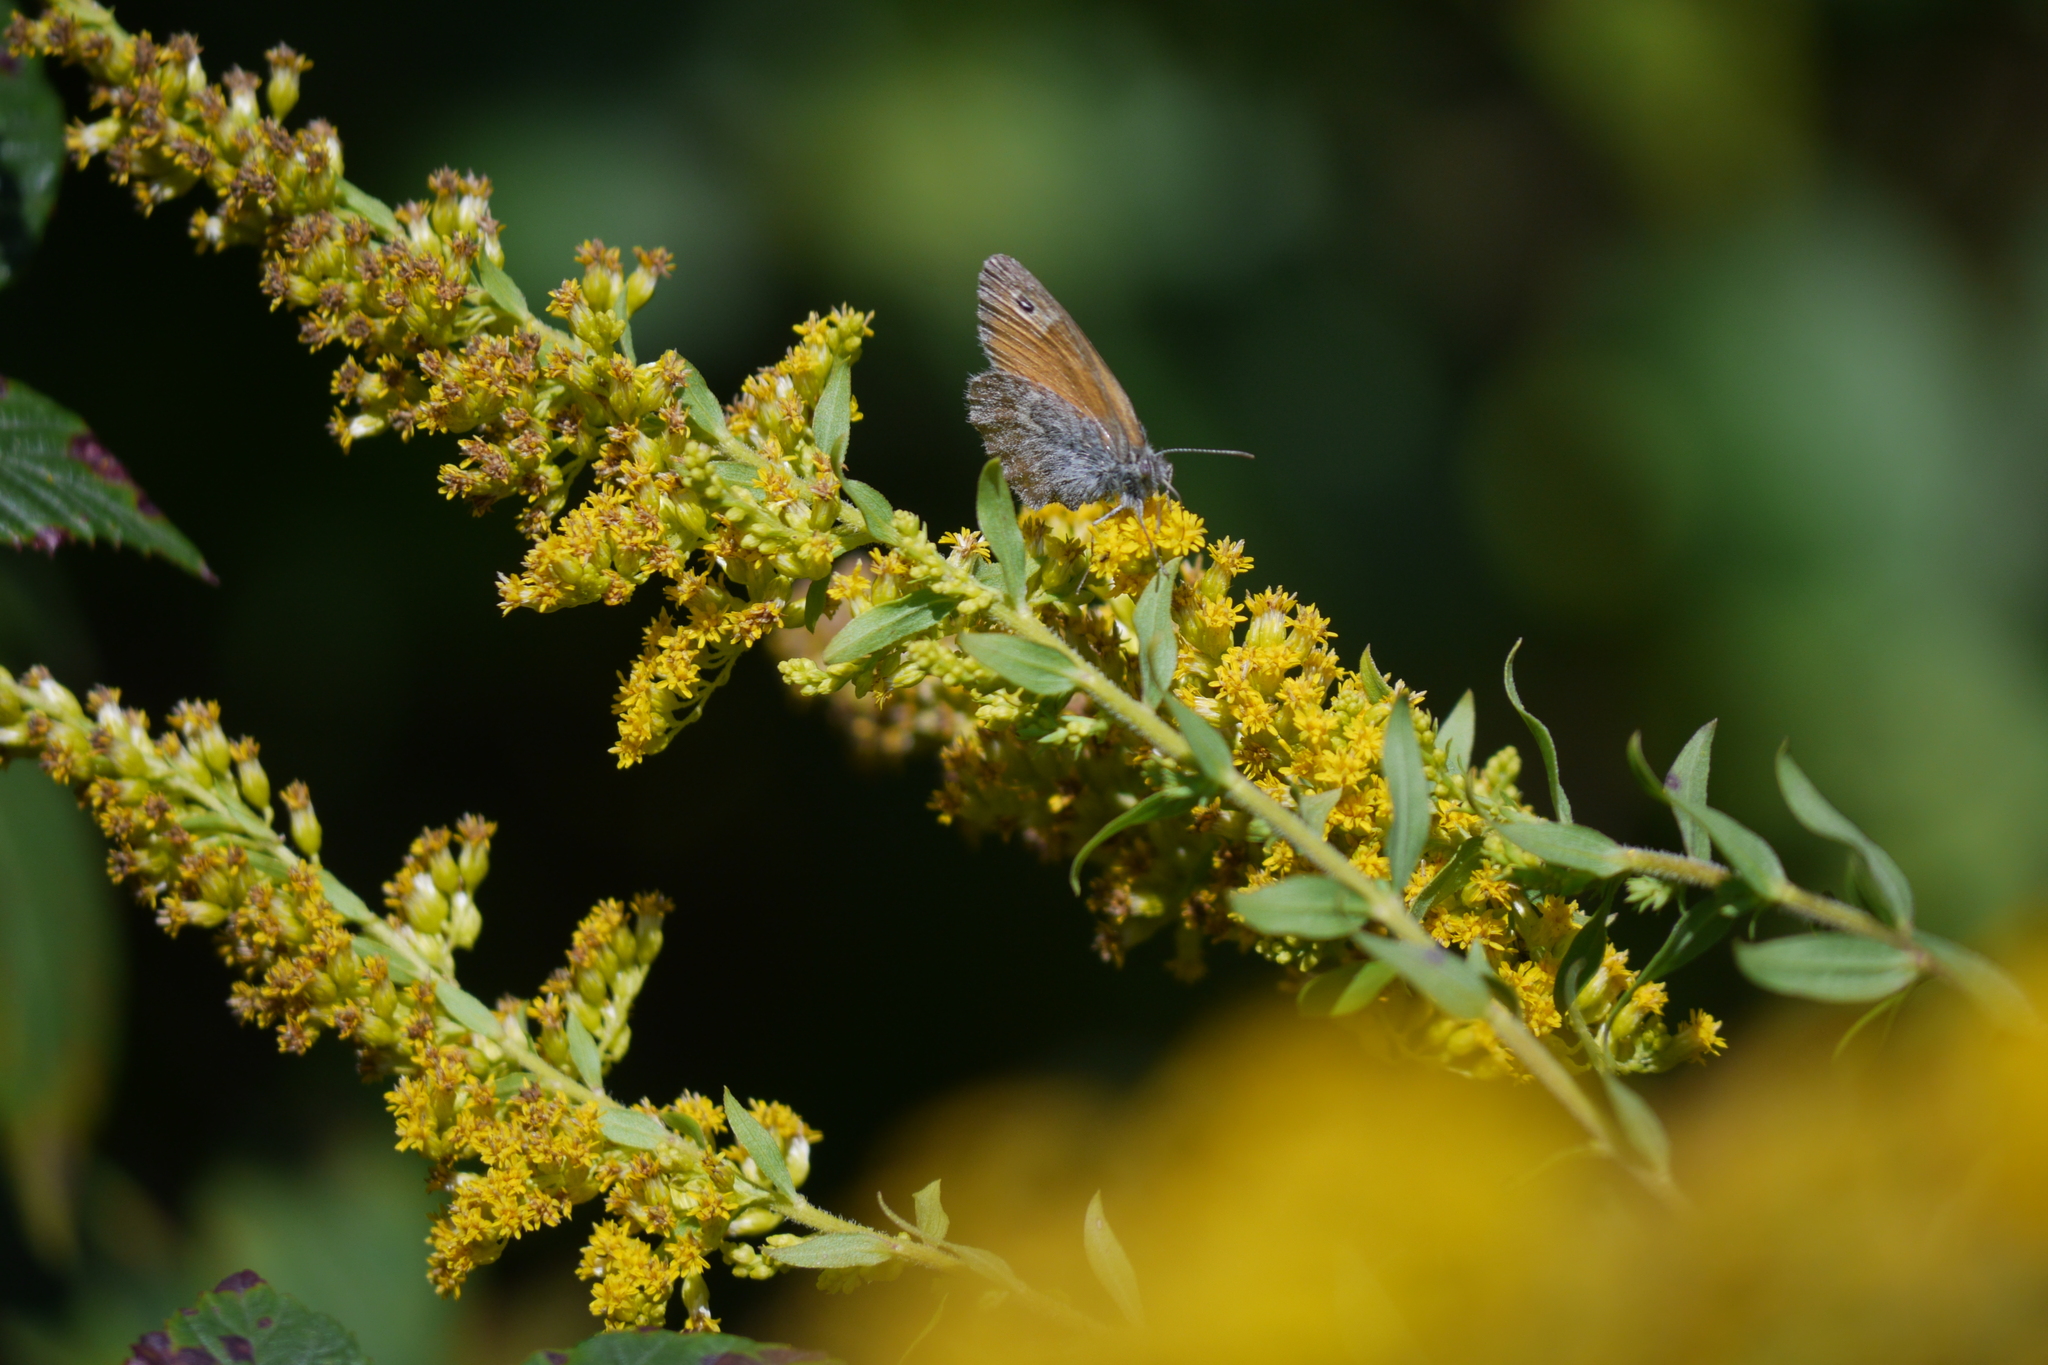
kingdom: Animalia
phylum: Arthropoda
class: Insecta
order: Lepidoptera
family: Nymphalidae
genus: Coenonympha
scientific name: Coenonympha pamphilus
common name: Small heath
